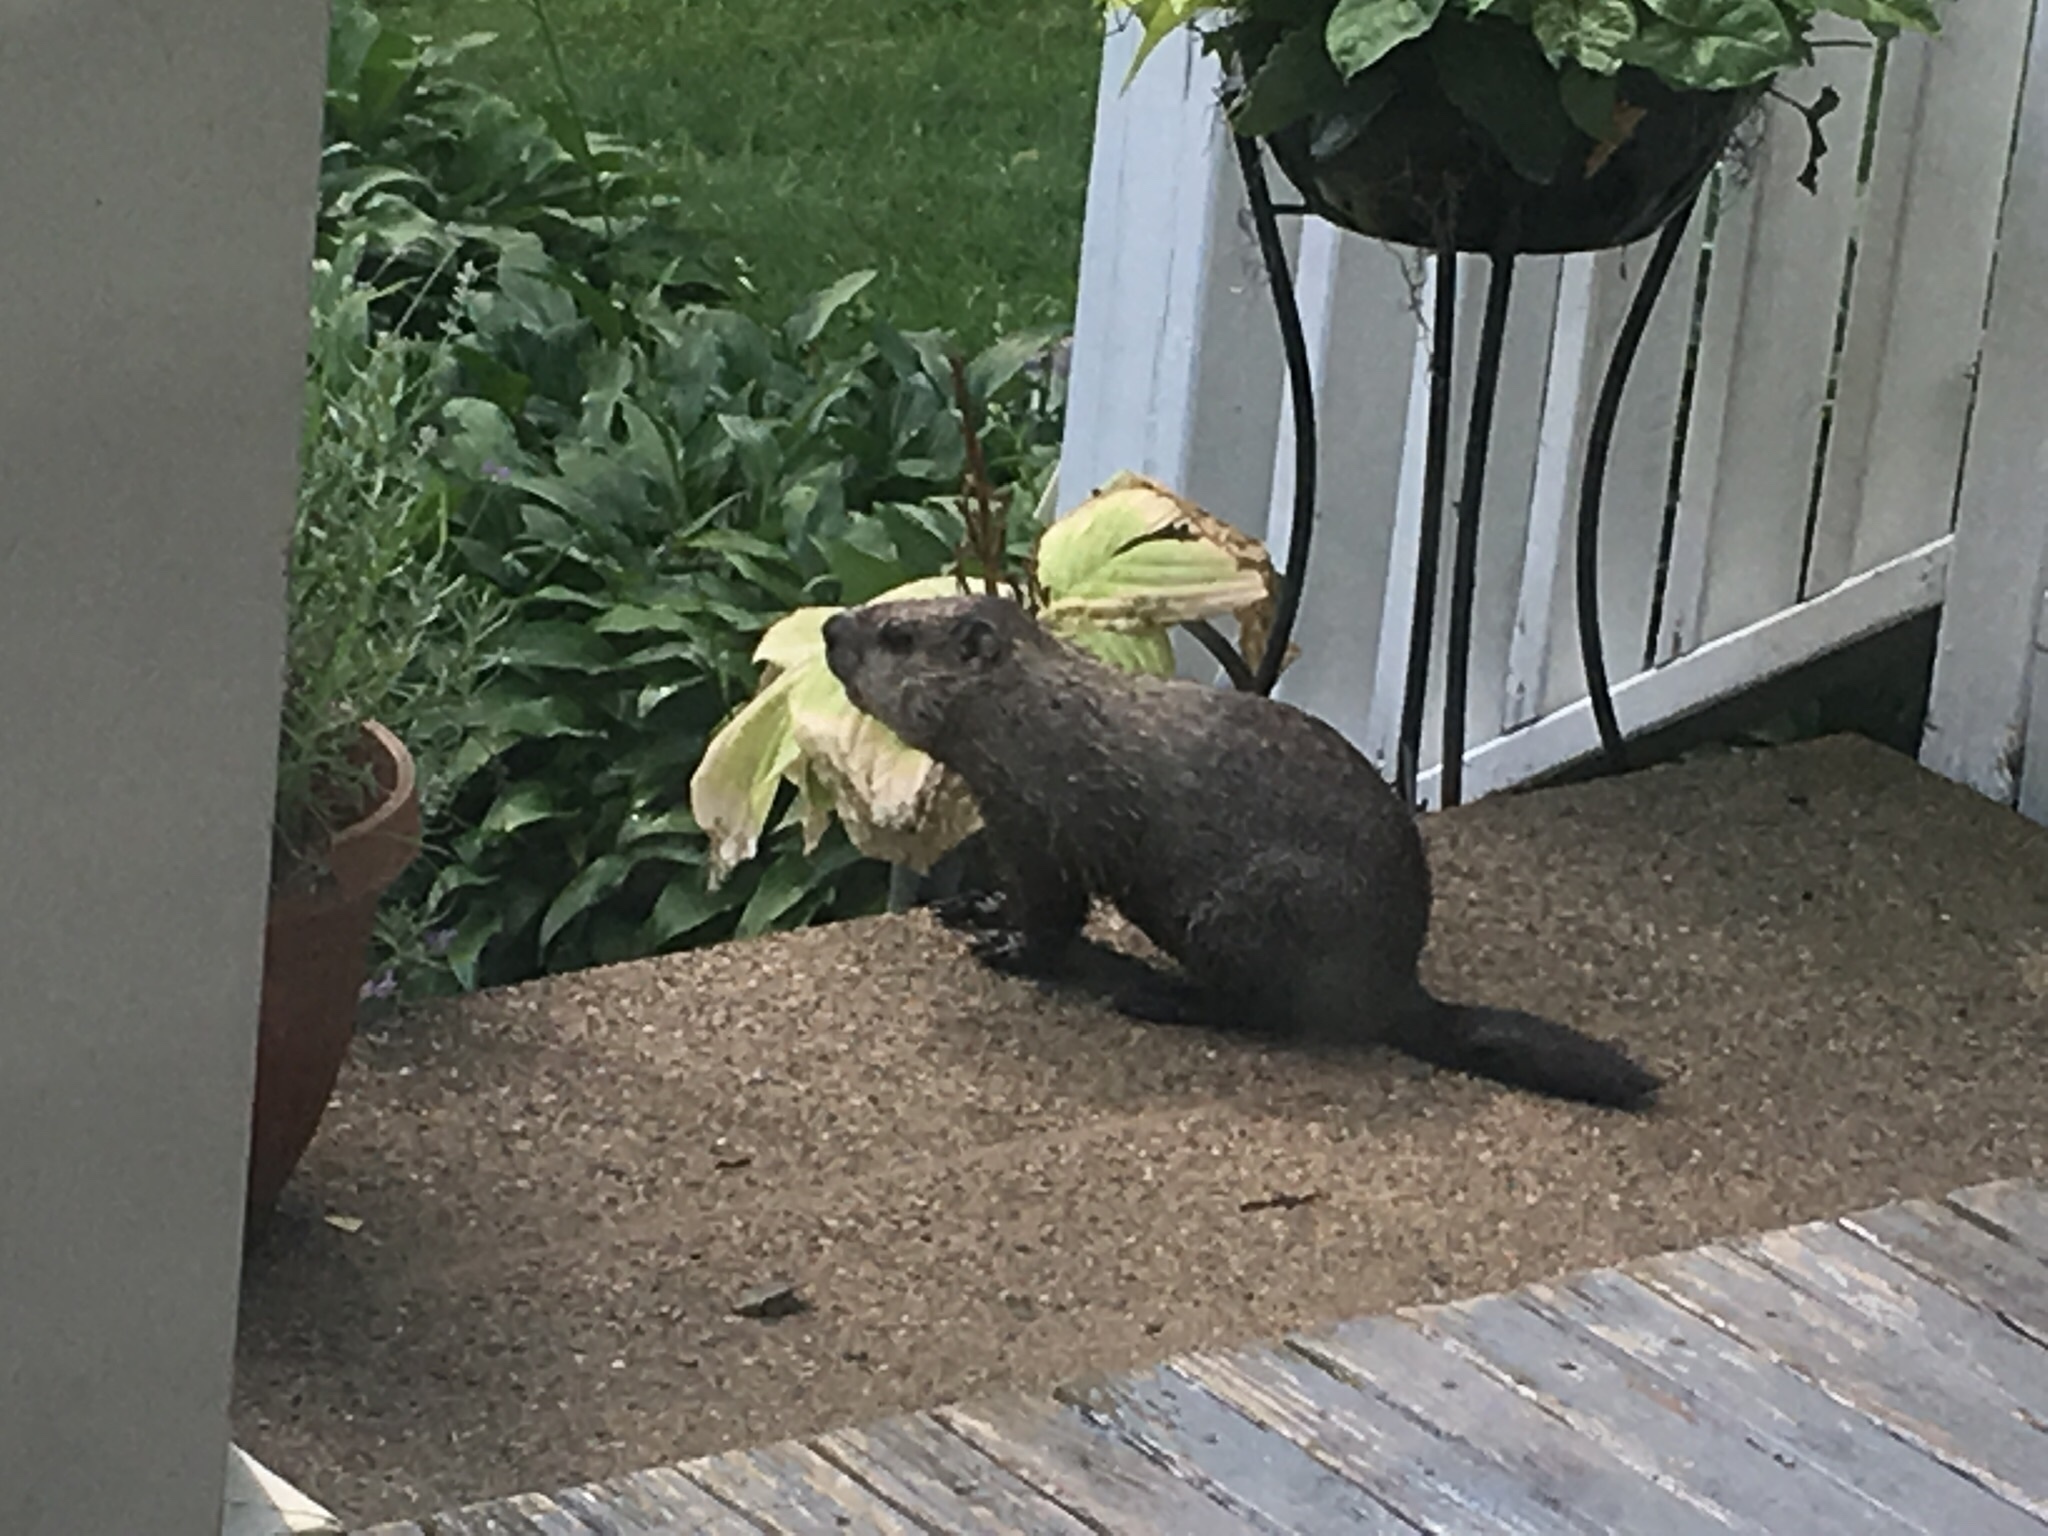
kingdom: Animalia
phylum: Chordata
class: Mammalia
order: Rodentia
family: Sciuridae
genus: Marmota
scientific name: Marmota monax
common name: Groundhog
